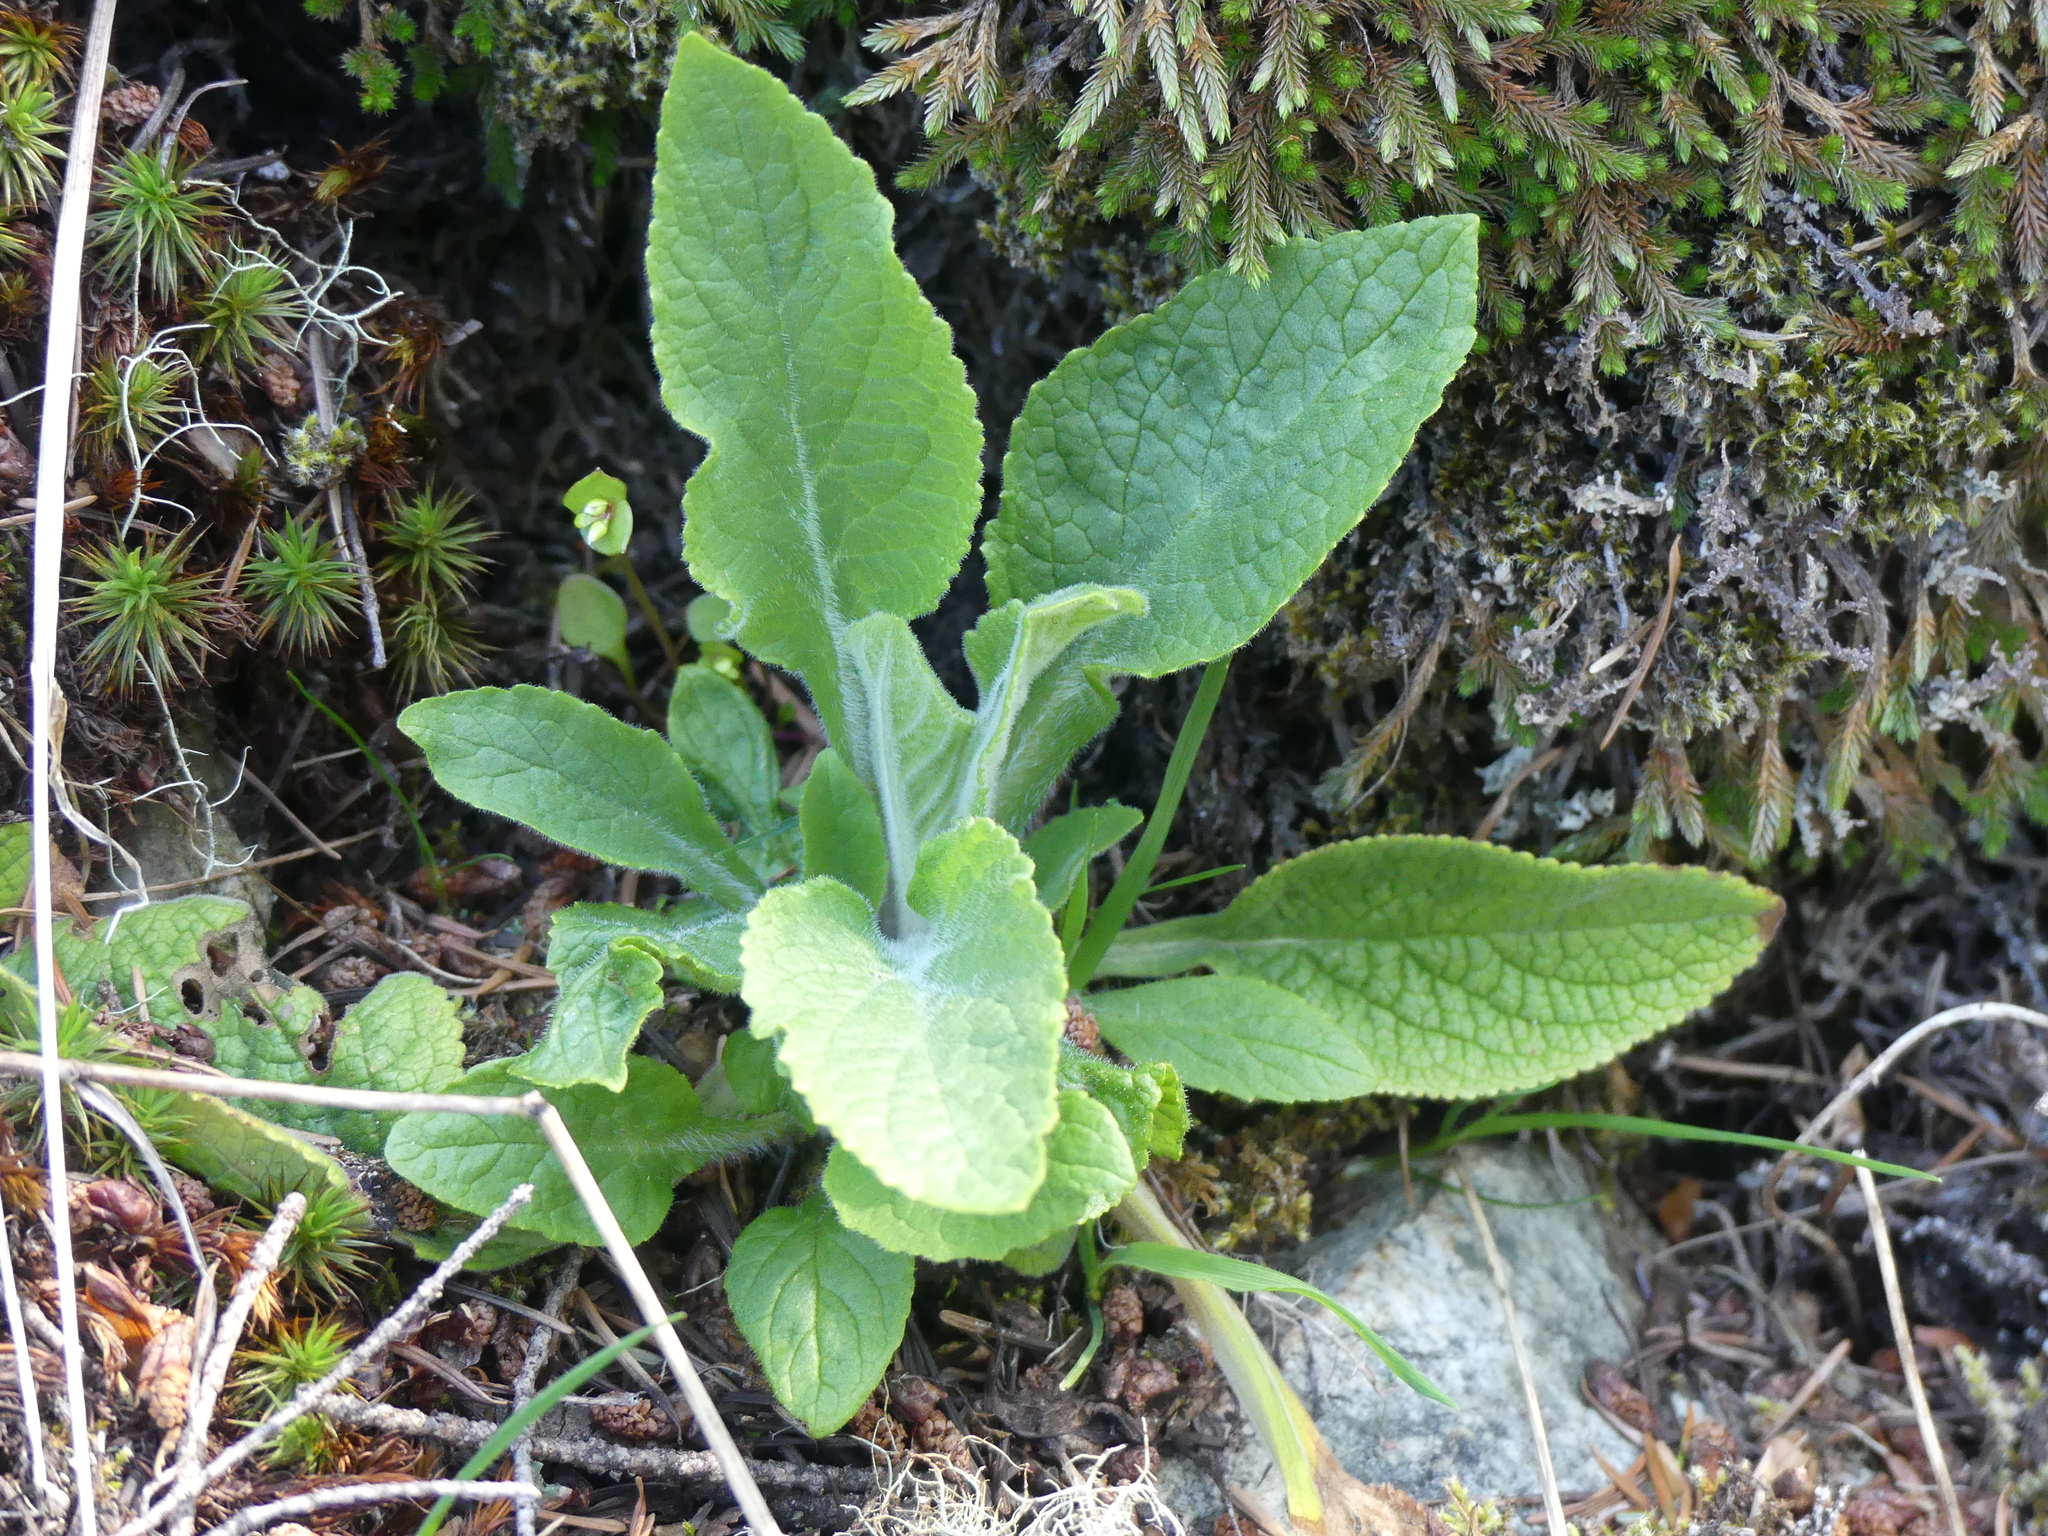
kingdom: Plantae
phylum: Tracheophyta
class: Magnoliopsida
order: Lamiales
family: Plantaginaceae
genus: Digitalis
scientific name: Digitalis purpurea
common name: Foxglove
